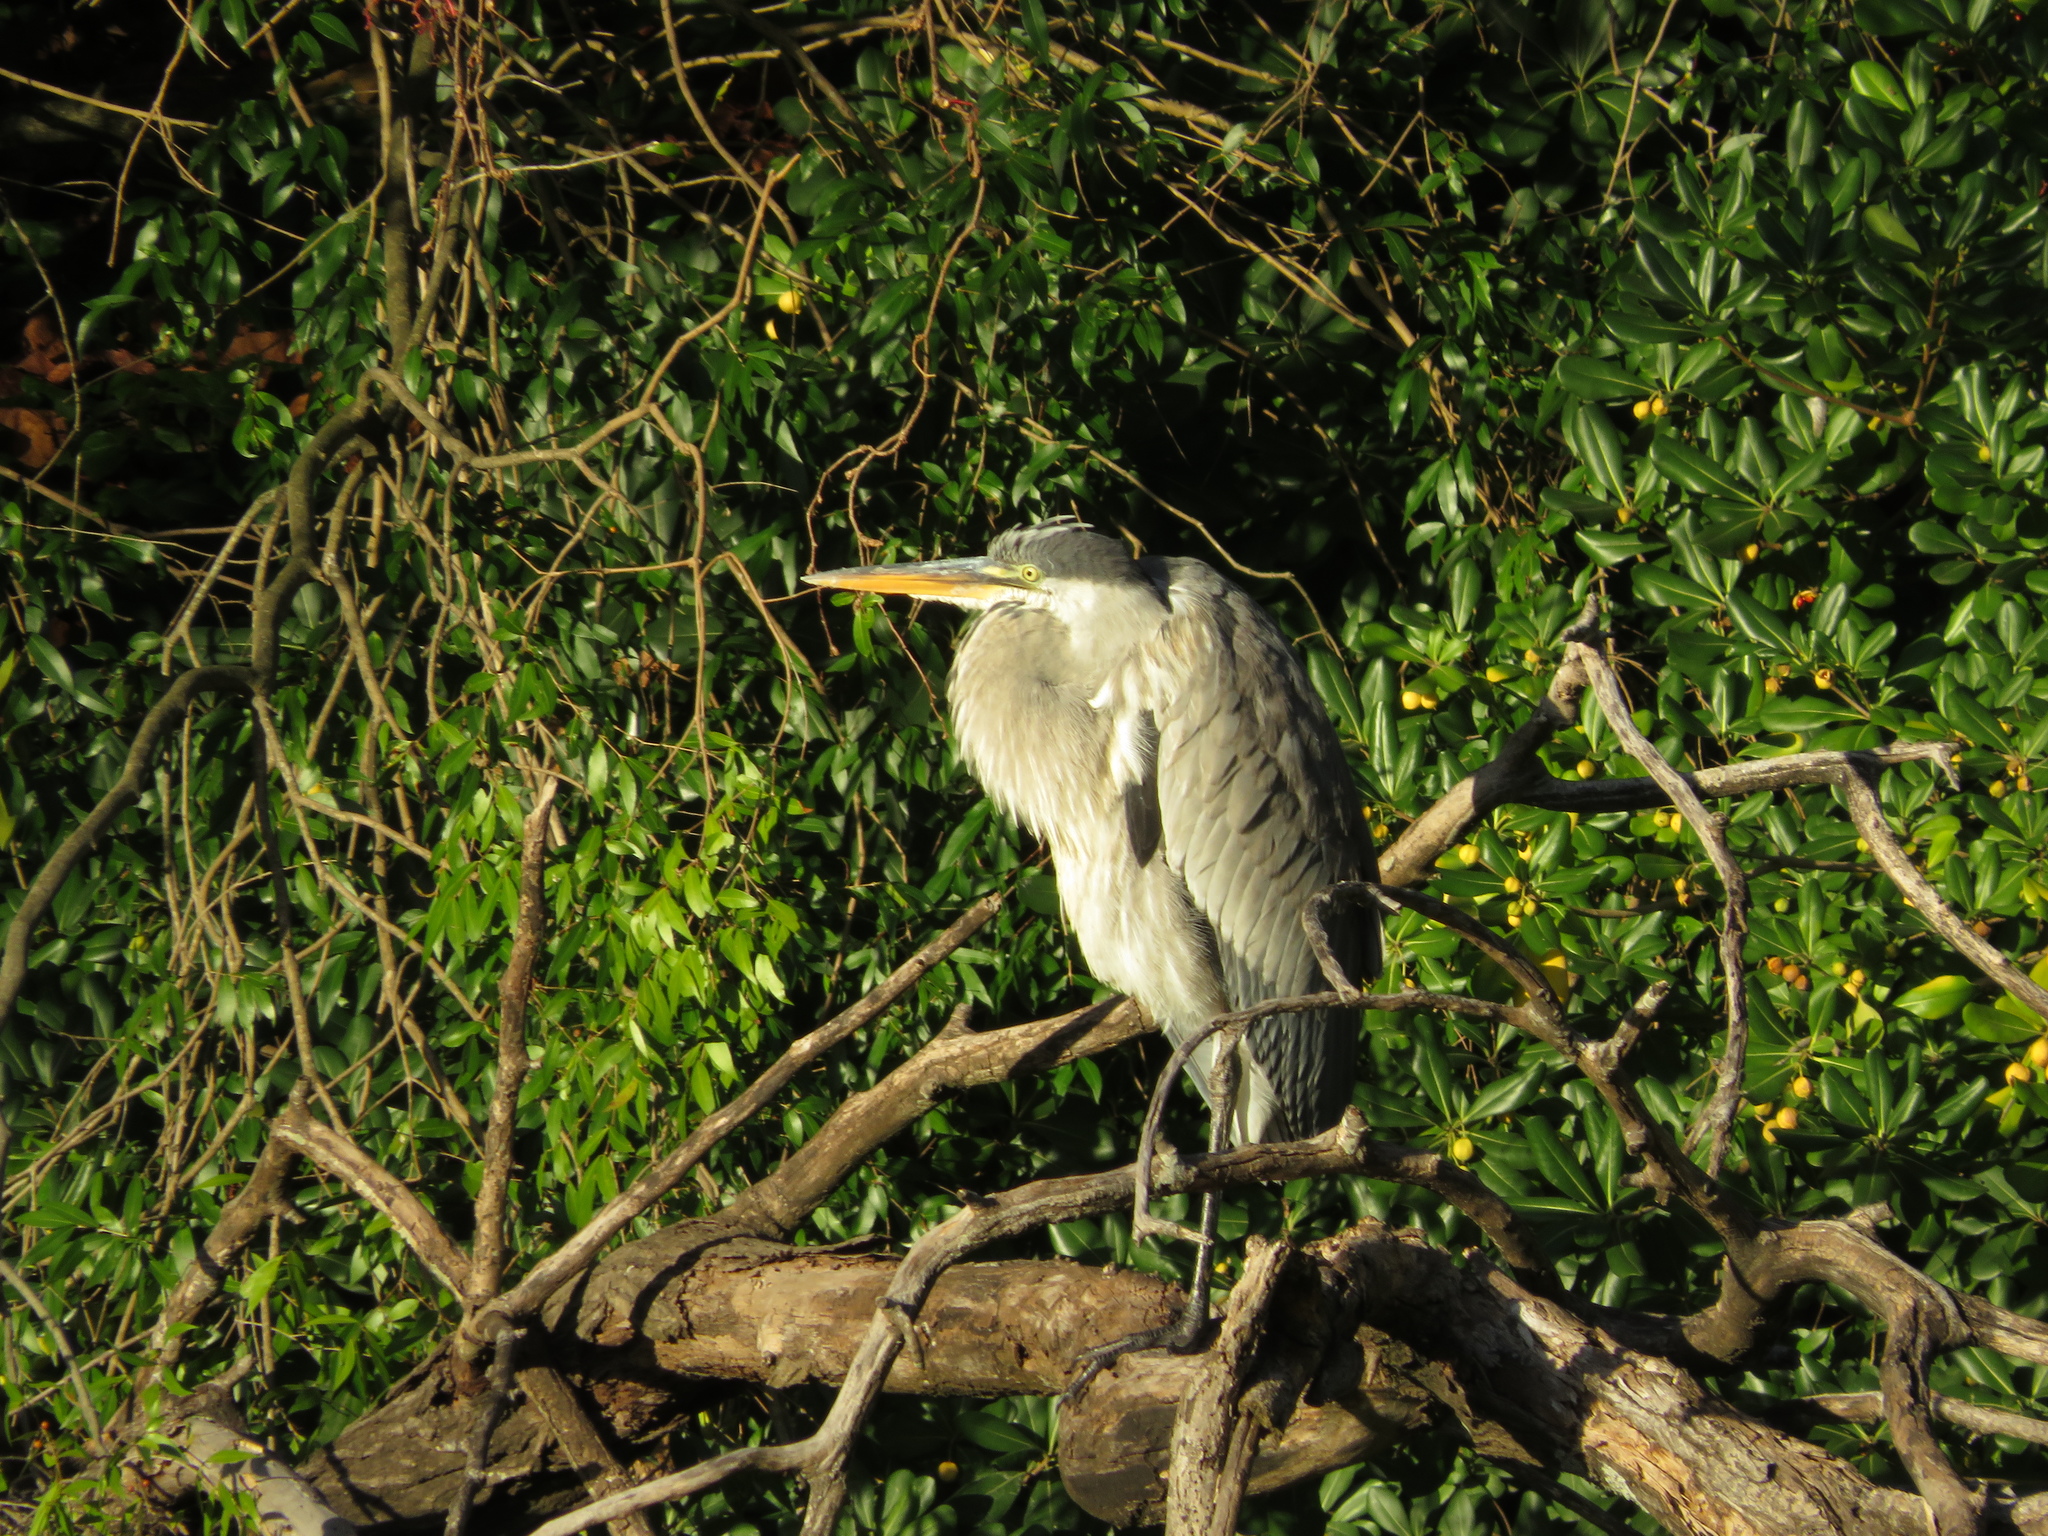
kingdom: Animalia
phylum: Chordata
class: Aves
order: Pelecaniformes
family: Ardeidae
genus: Ardea
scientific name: Ardea cocoi
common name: Cocoi heron
